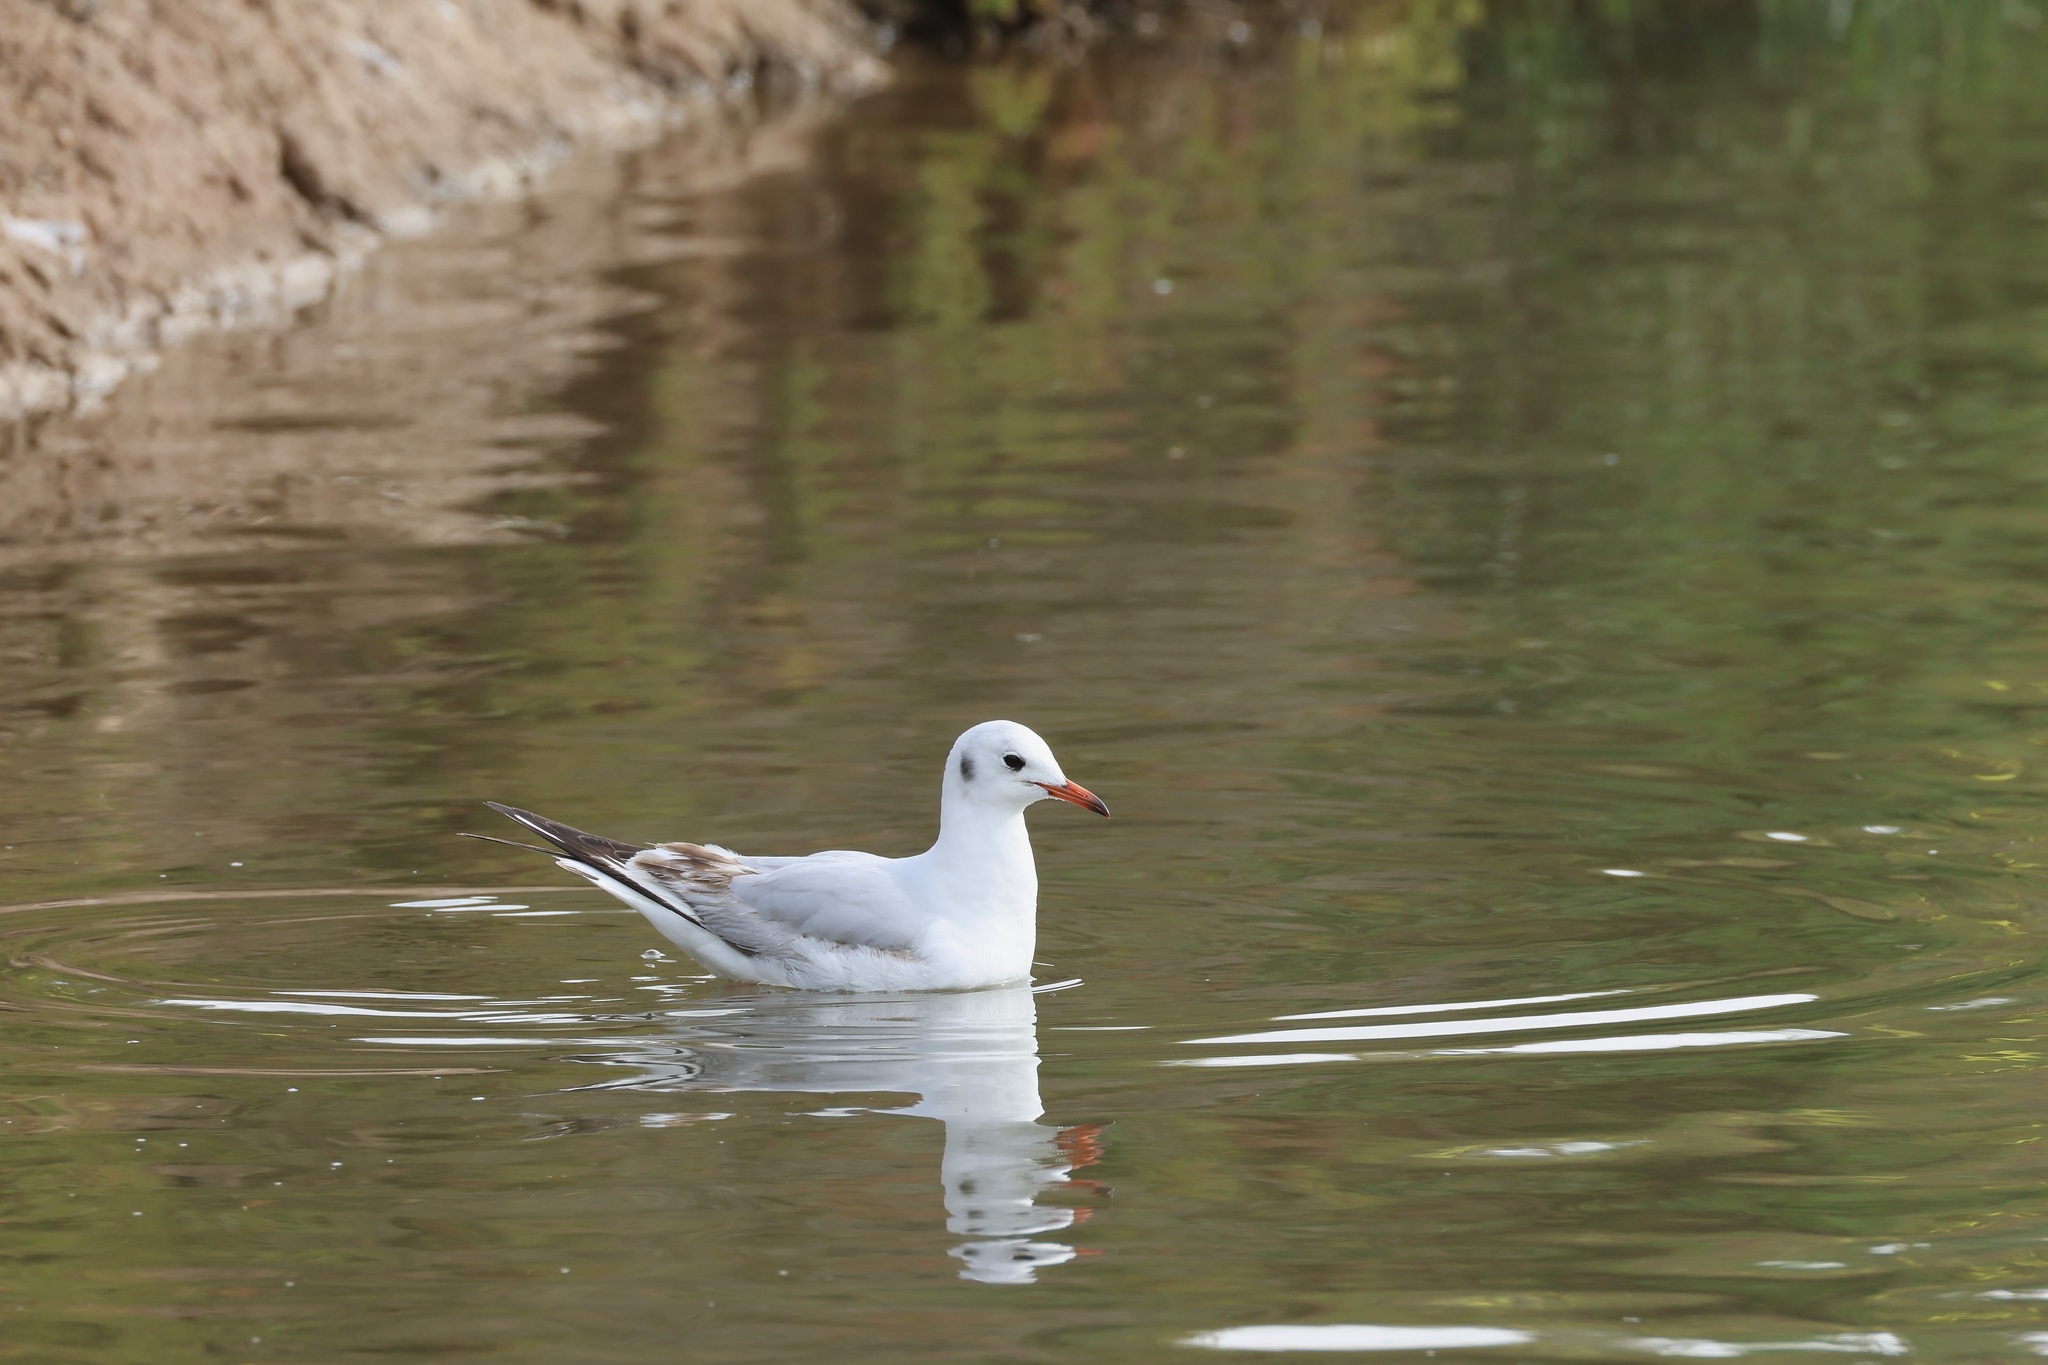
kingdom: Animalia
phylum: Chordata
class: Aves
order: Charadriiformes
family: Laridae
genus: Chroicocephalus
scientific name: Chroicocephalus ridibundus
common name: Black-headed gull
